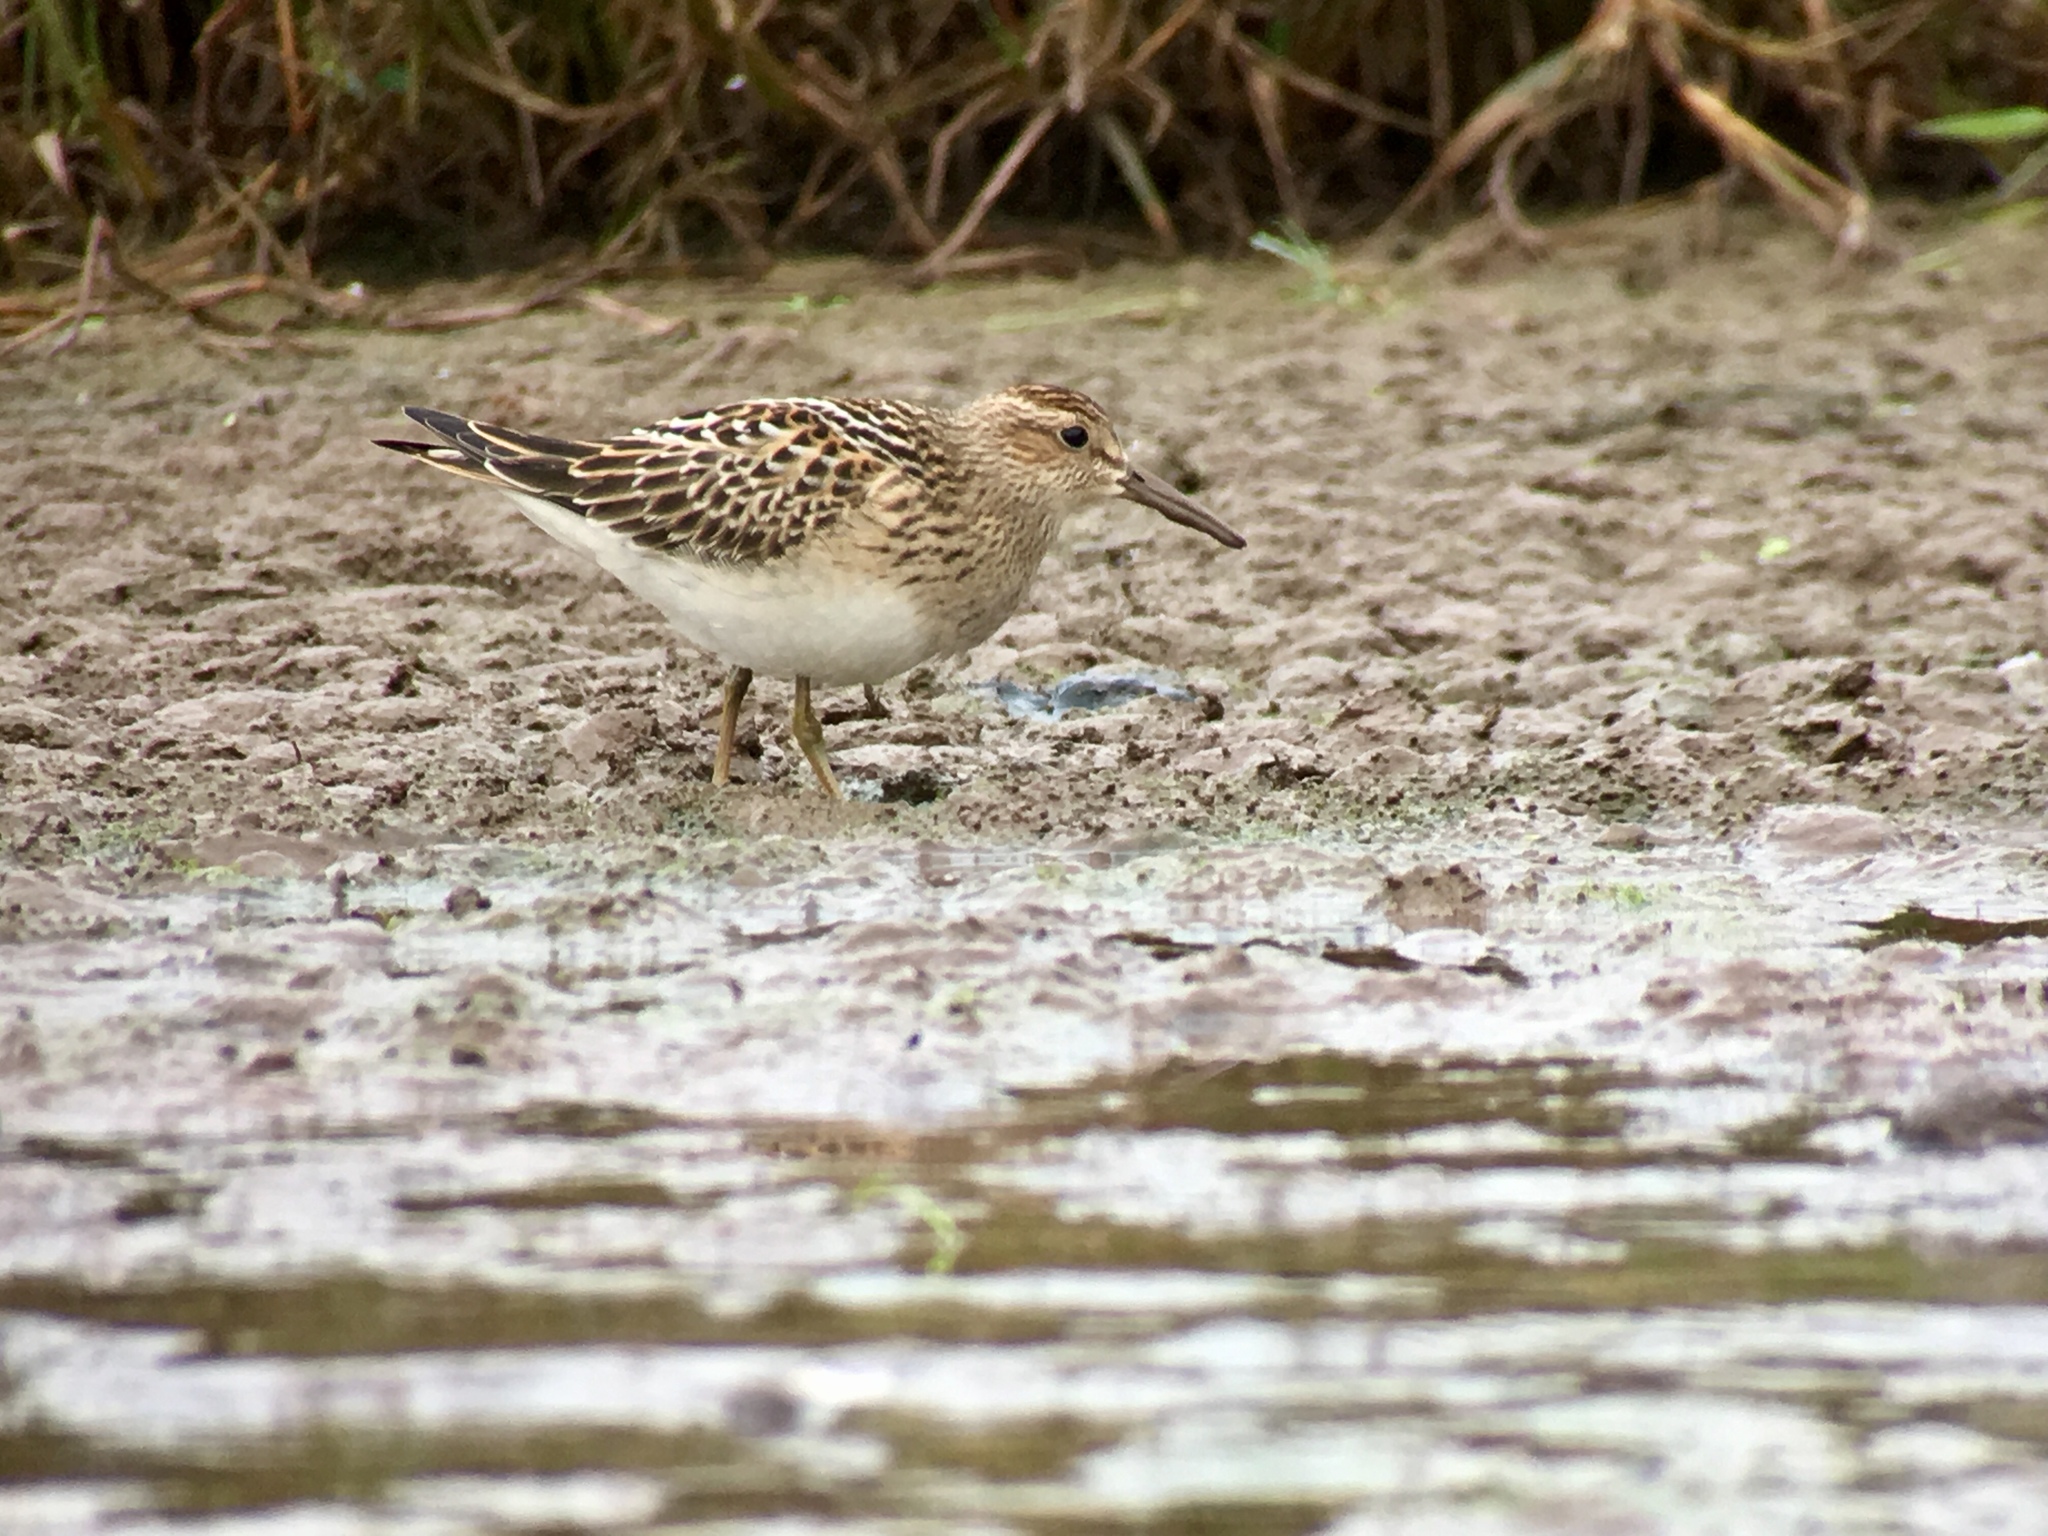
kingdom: Animalia
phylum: Chordata
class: Aves
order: Charadriiformes
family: Scolopacidae
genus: Calidris
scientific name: Calidris melanotos
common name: Pectoral sandpiper
